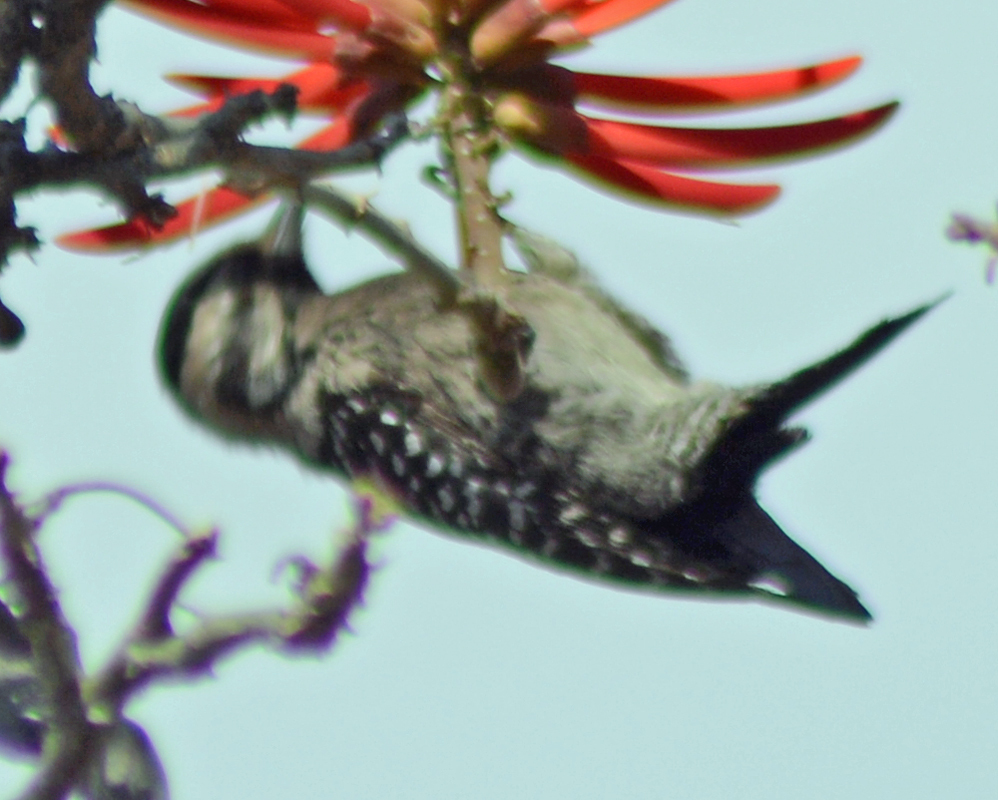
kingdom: Animalia
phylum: Chordata
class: Aves
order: Piciformes
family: Picidae
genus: Dryobates
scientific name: Dryobates scalaris
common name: Ladder-backed woodpecker
